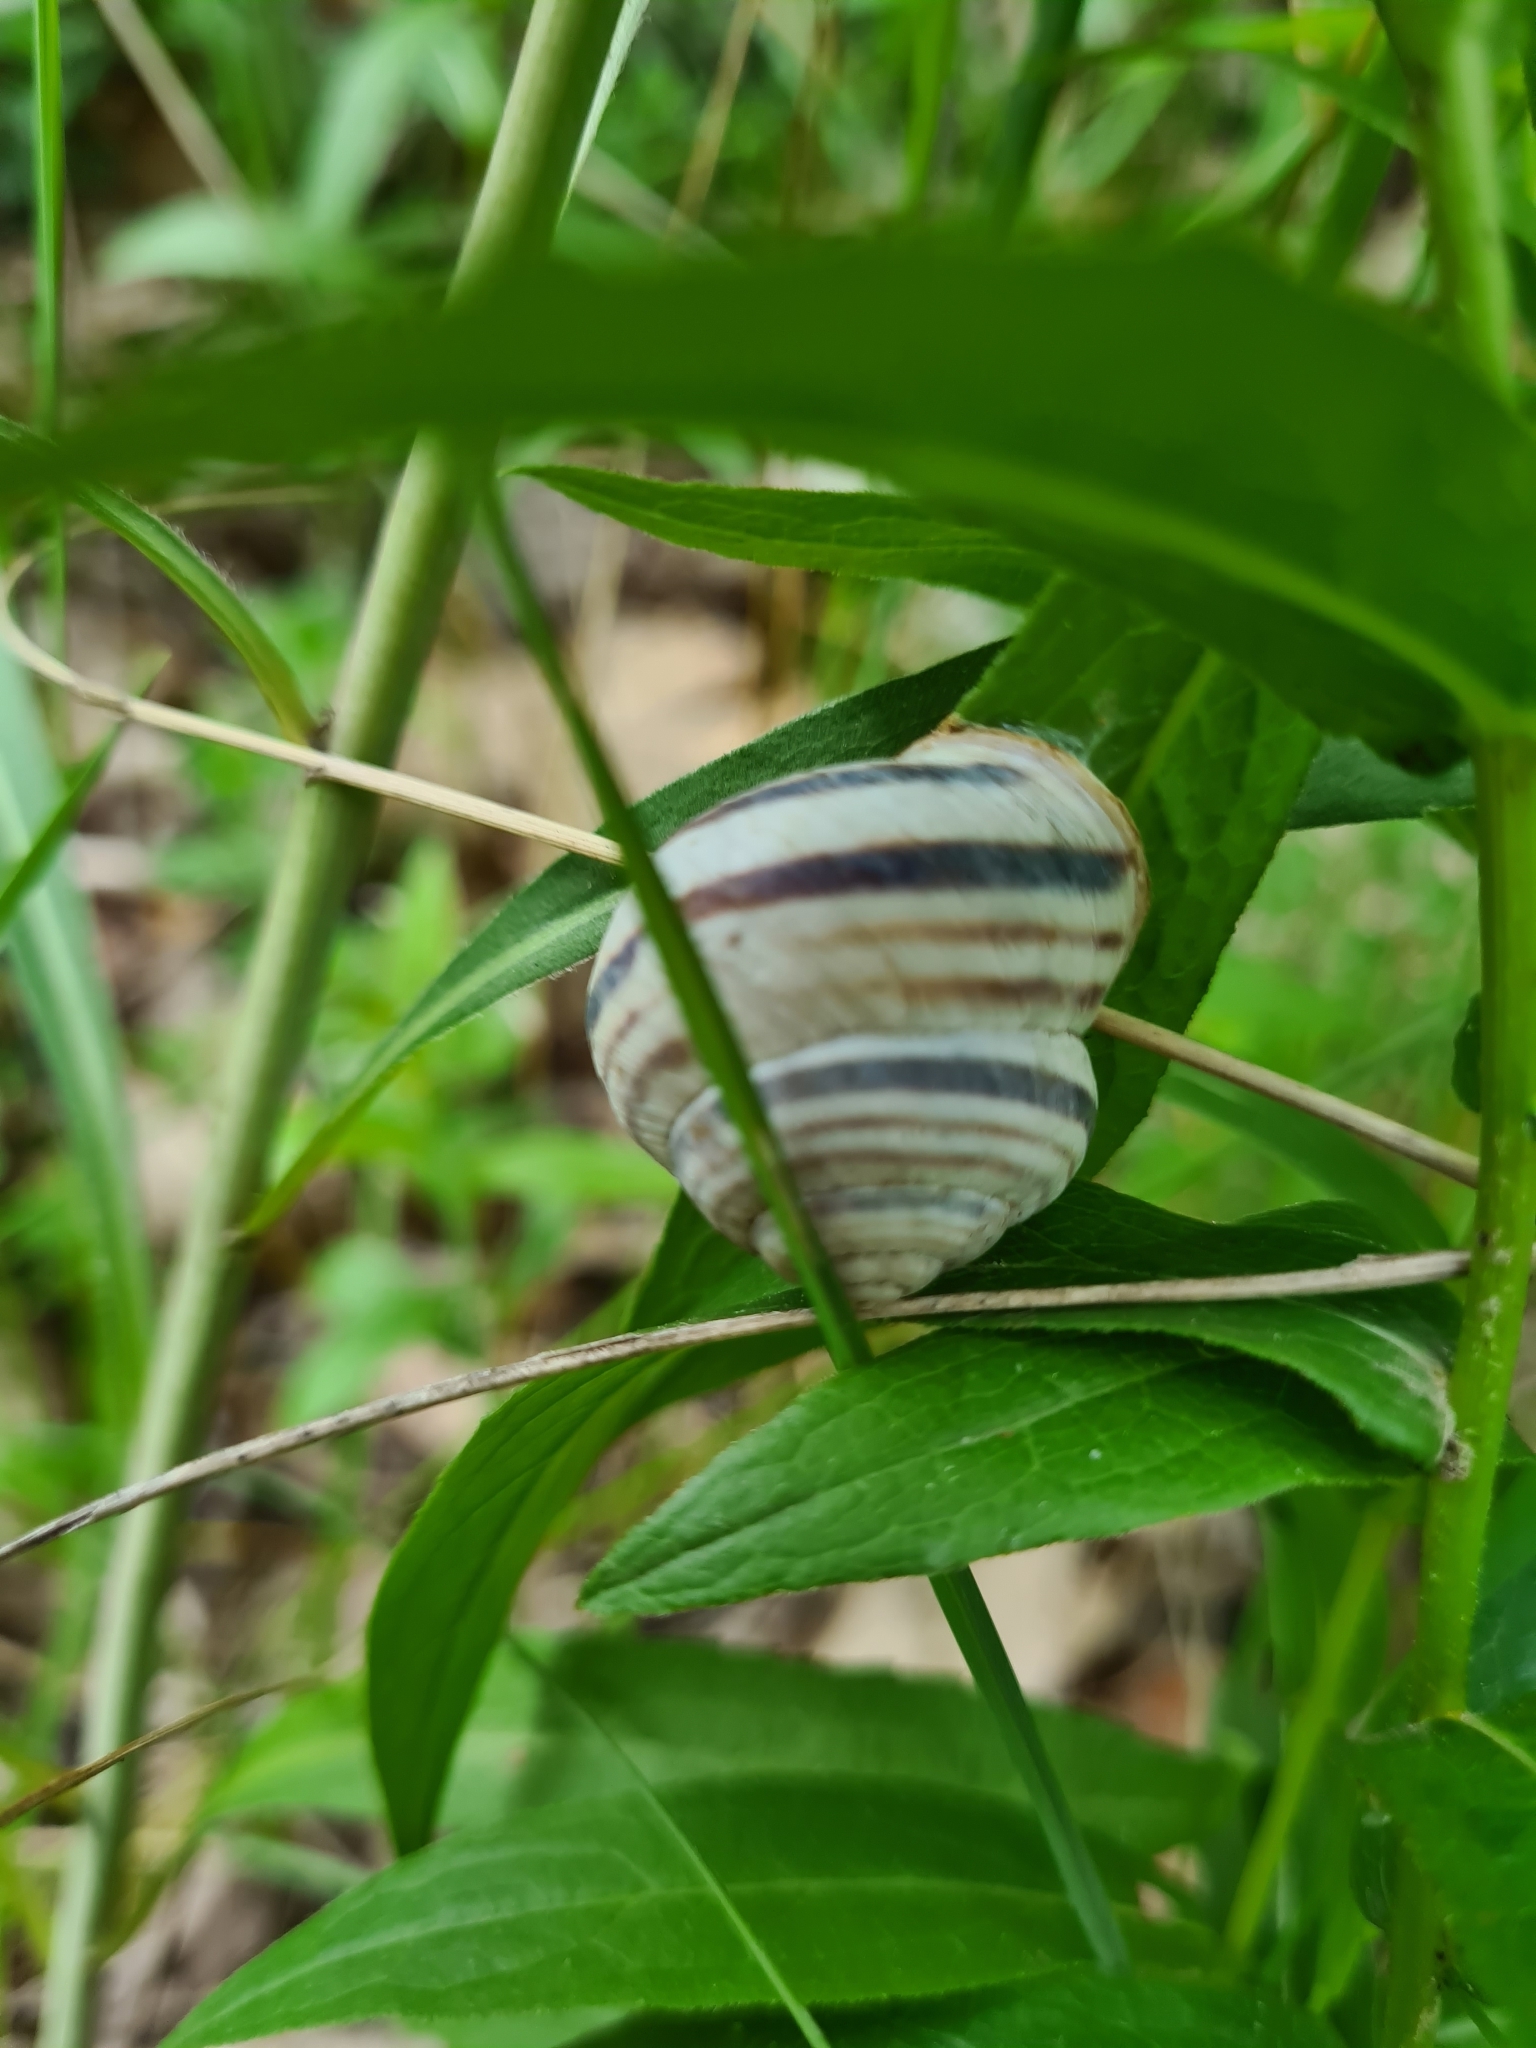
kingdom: Animalia
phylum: Mollusca
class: Gastropoda
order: Stylommatophora
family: Helicidae
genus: Caucasotachea
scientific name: Caucasotachea vindobonensis
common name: European helicid land snail
